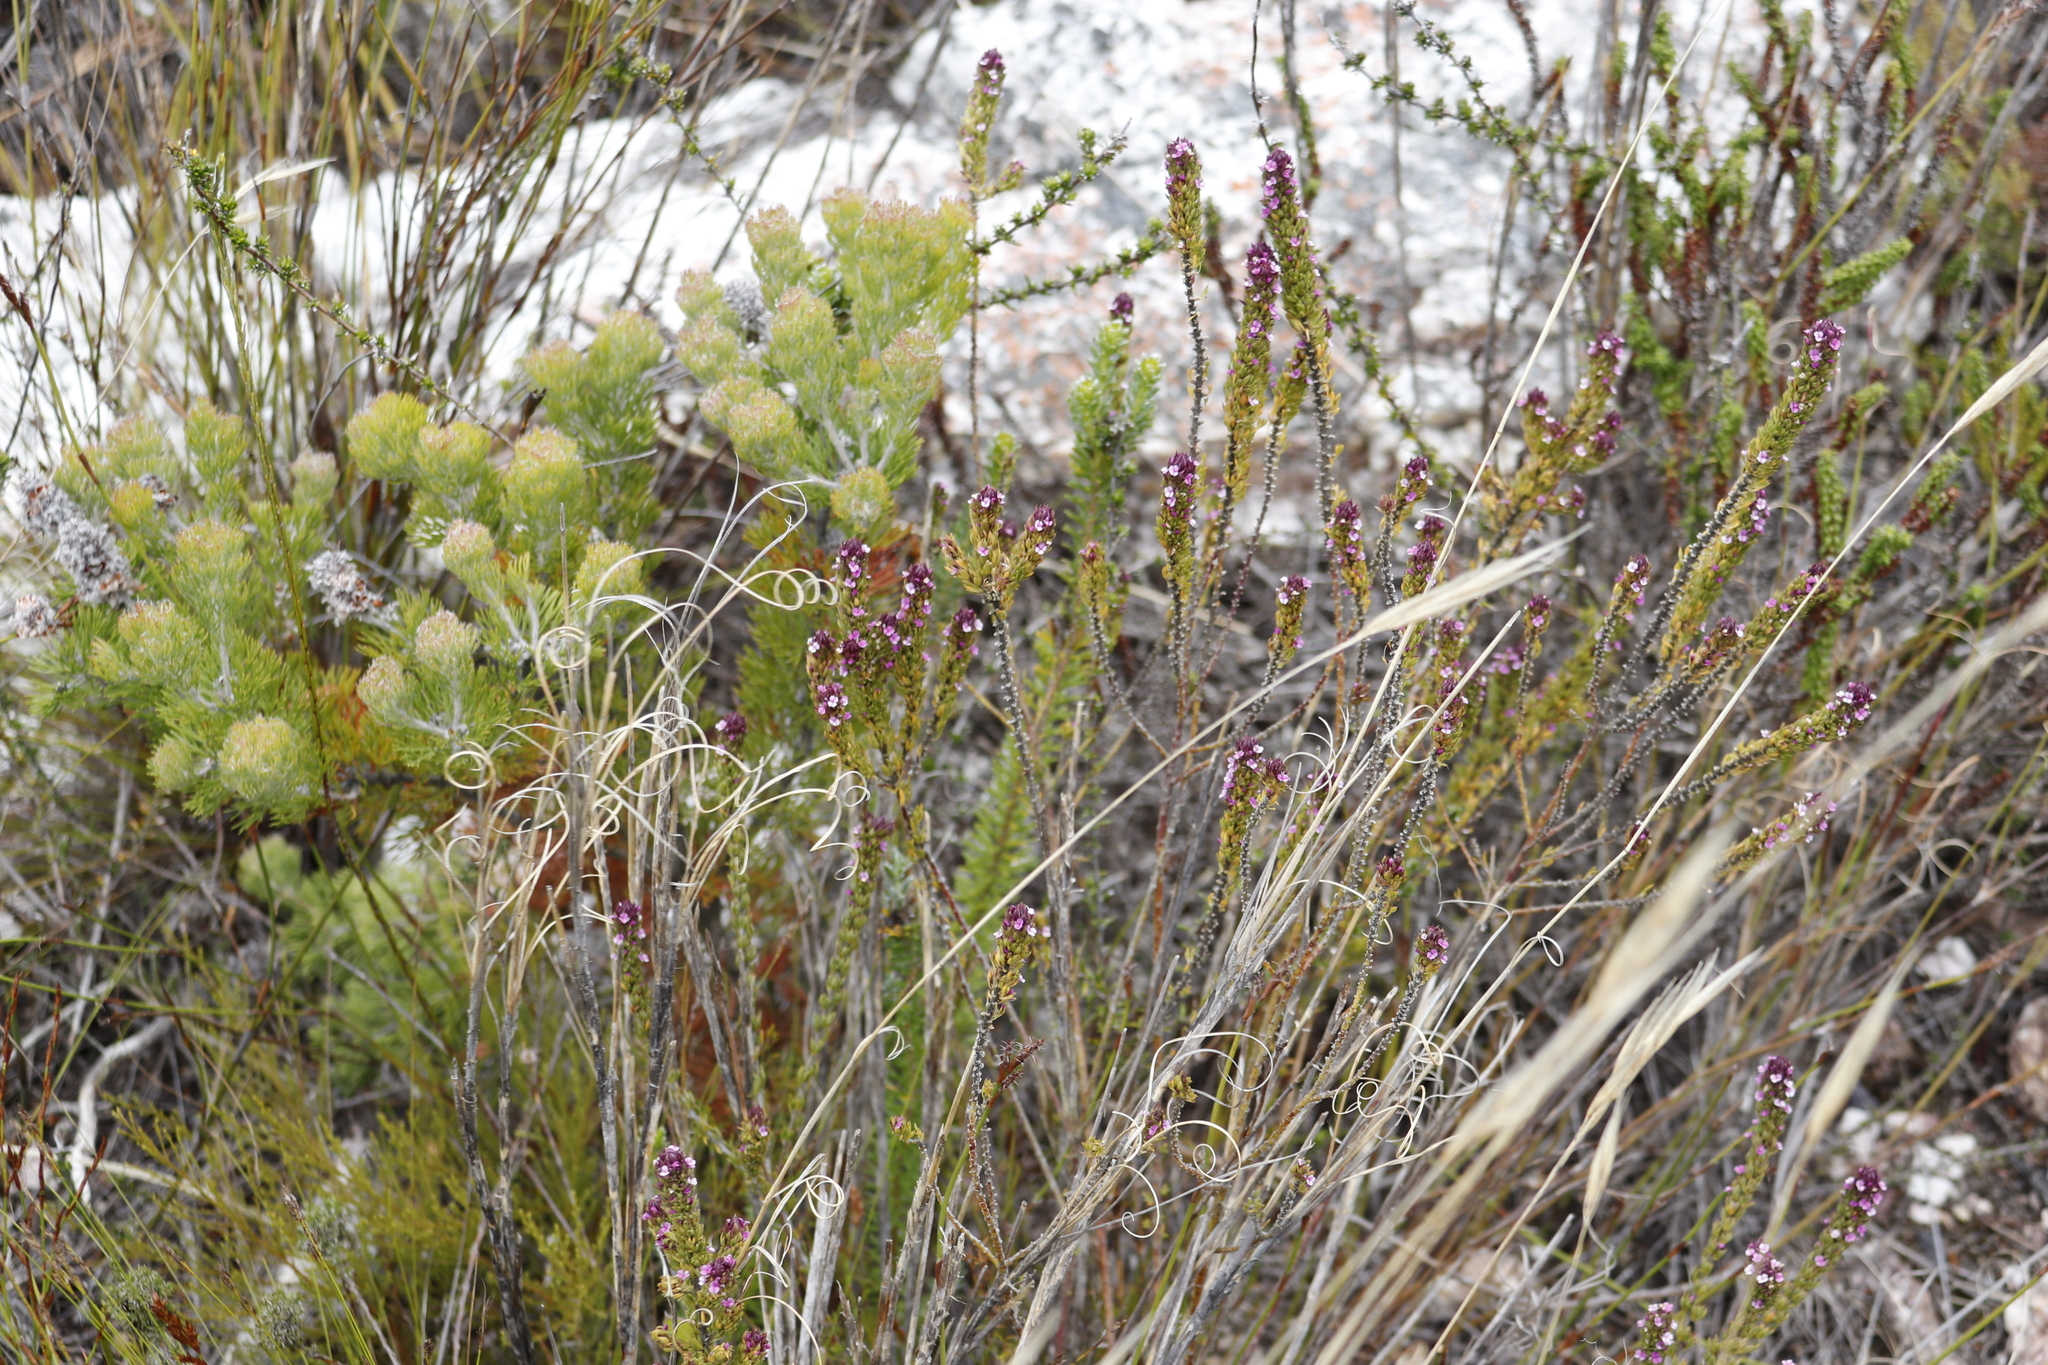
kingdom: Plantae
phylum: Tracheophyta
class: Magnoliopsida
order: Proteales
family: Proteaceae
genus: Paranomus
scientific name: Paranomus abrotanifolius
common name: Bredasdorp sceptre
